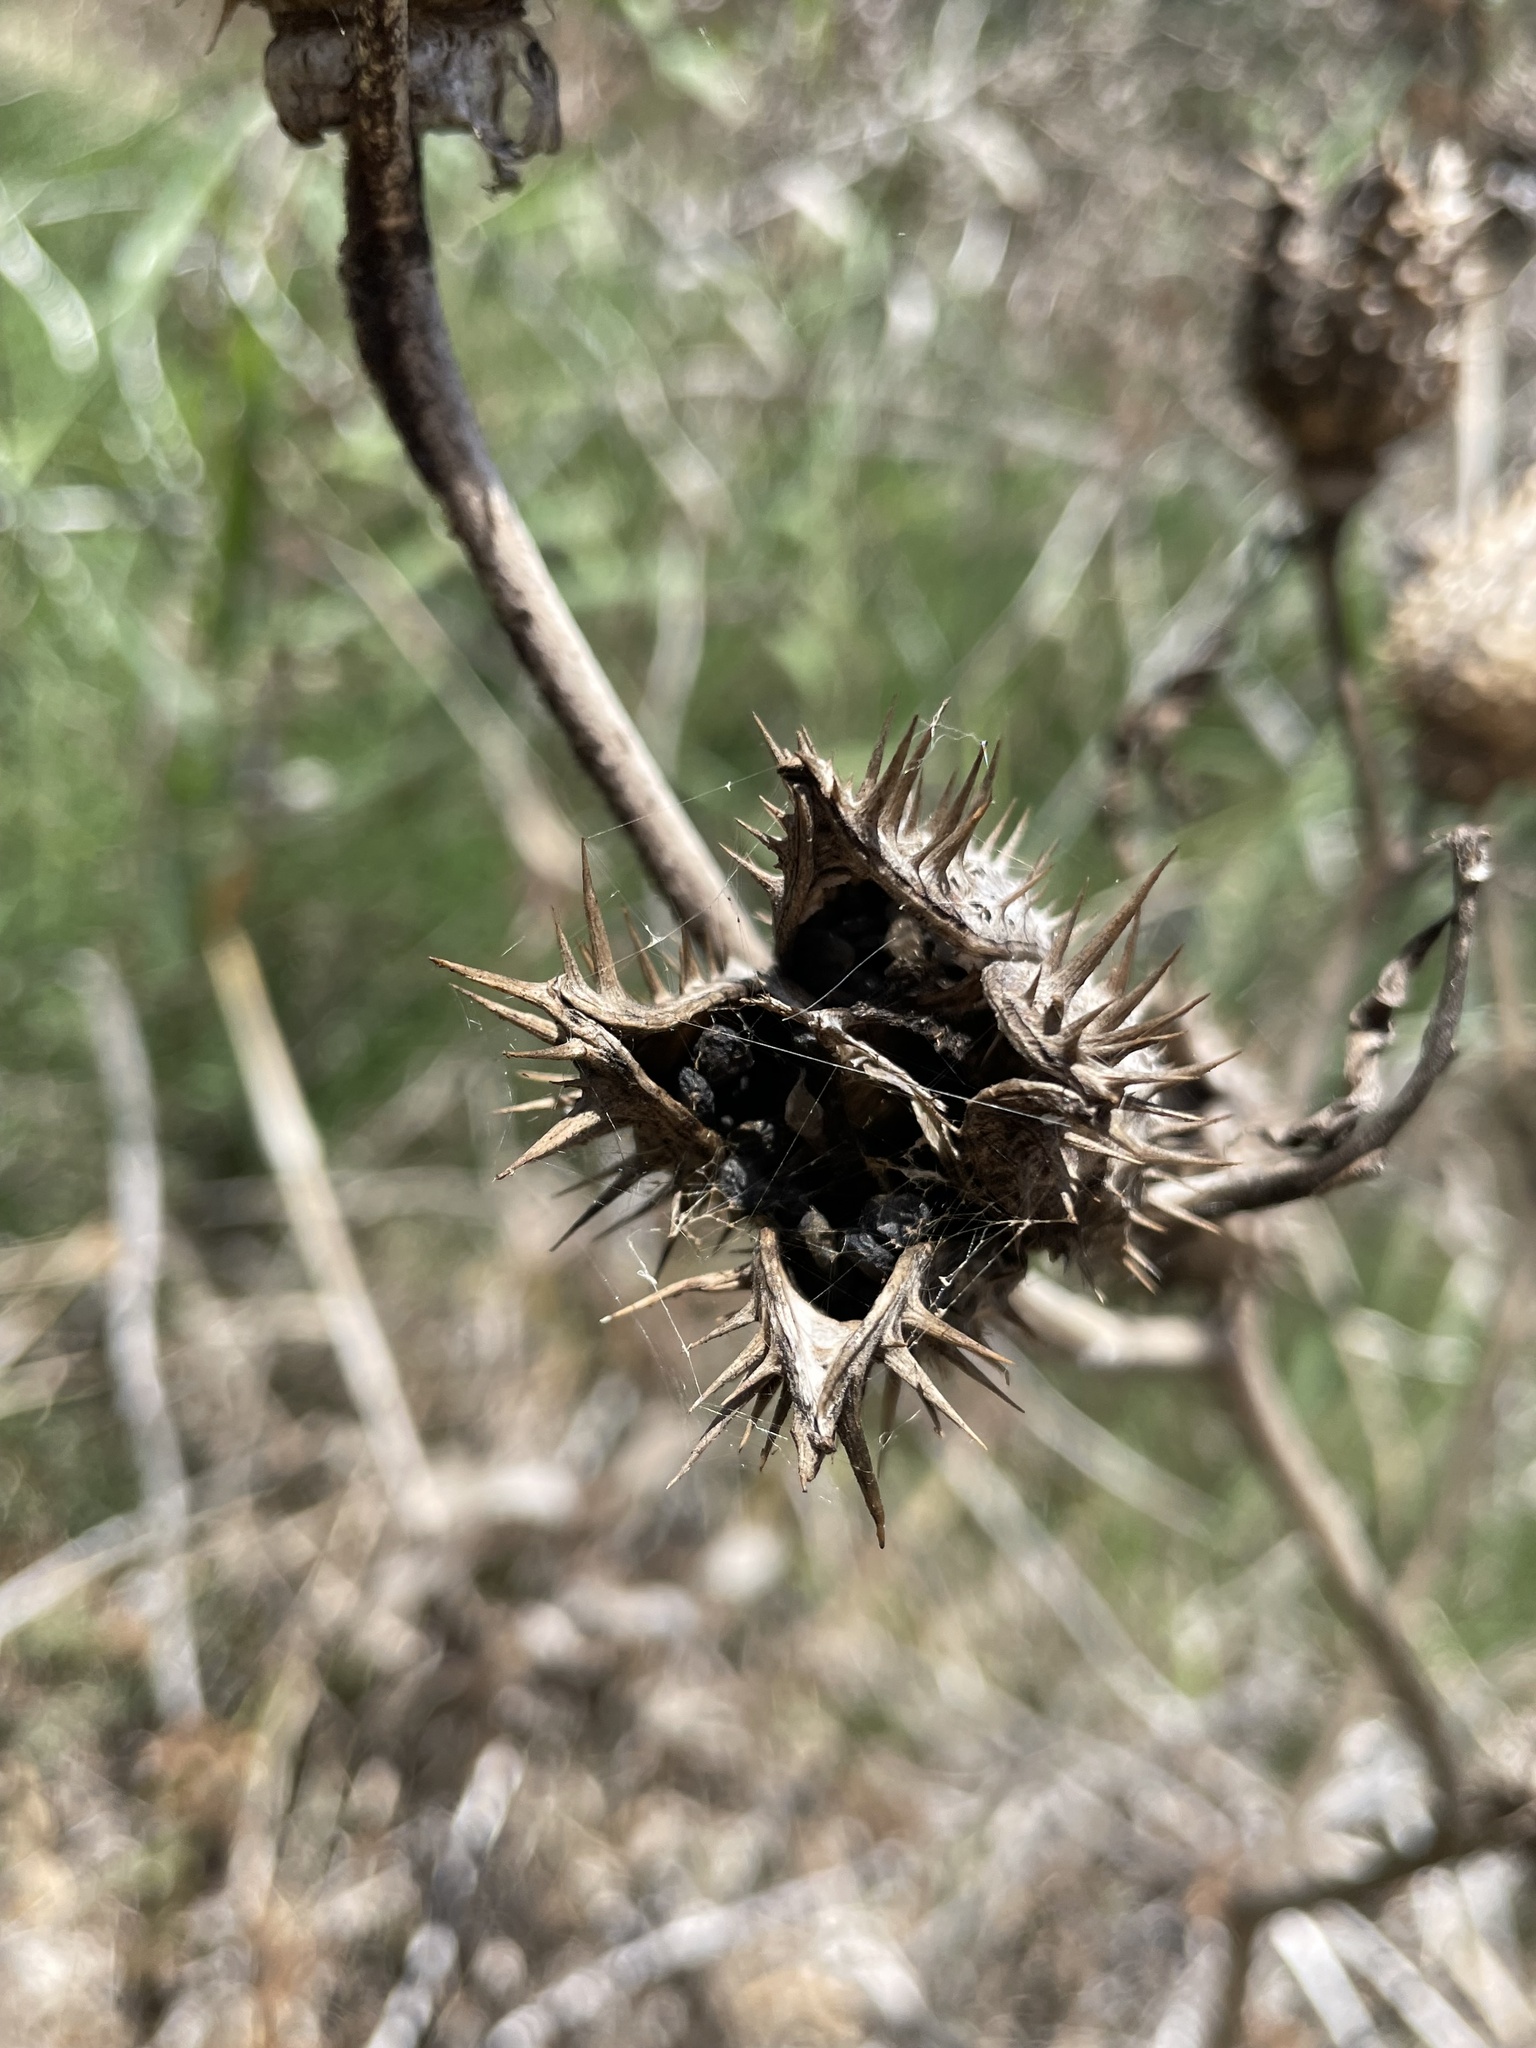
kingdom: Plantae
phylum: Tracheophyta
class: Magnoliopsida
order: Solanales
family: Solanaceae
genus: Datura
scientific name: Datura stramonium
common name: Thorn-apple
